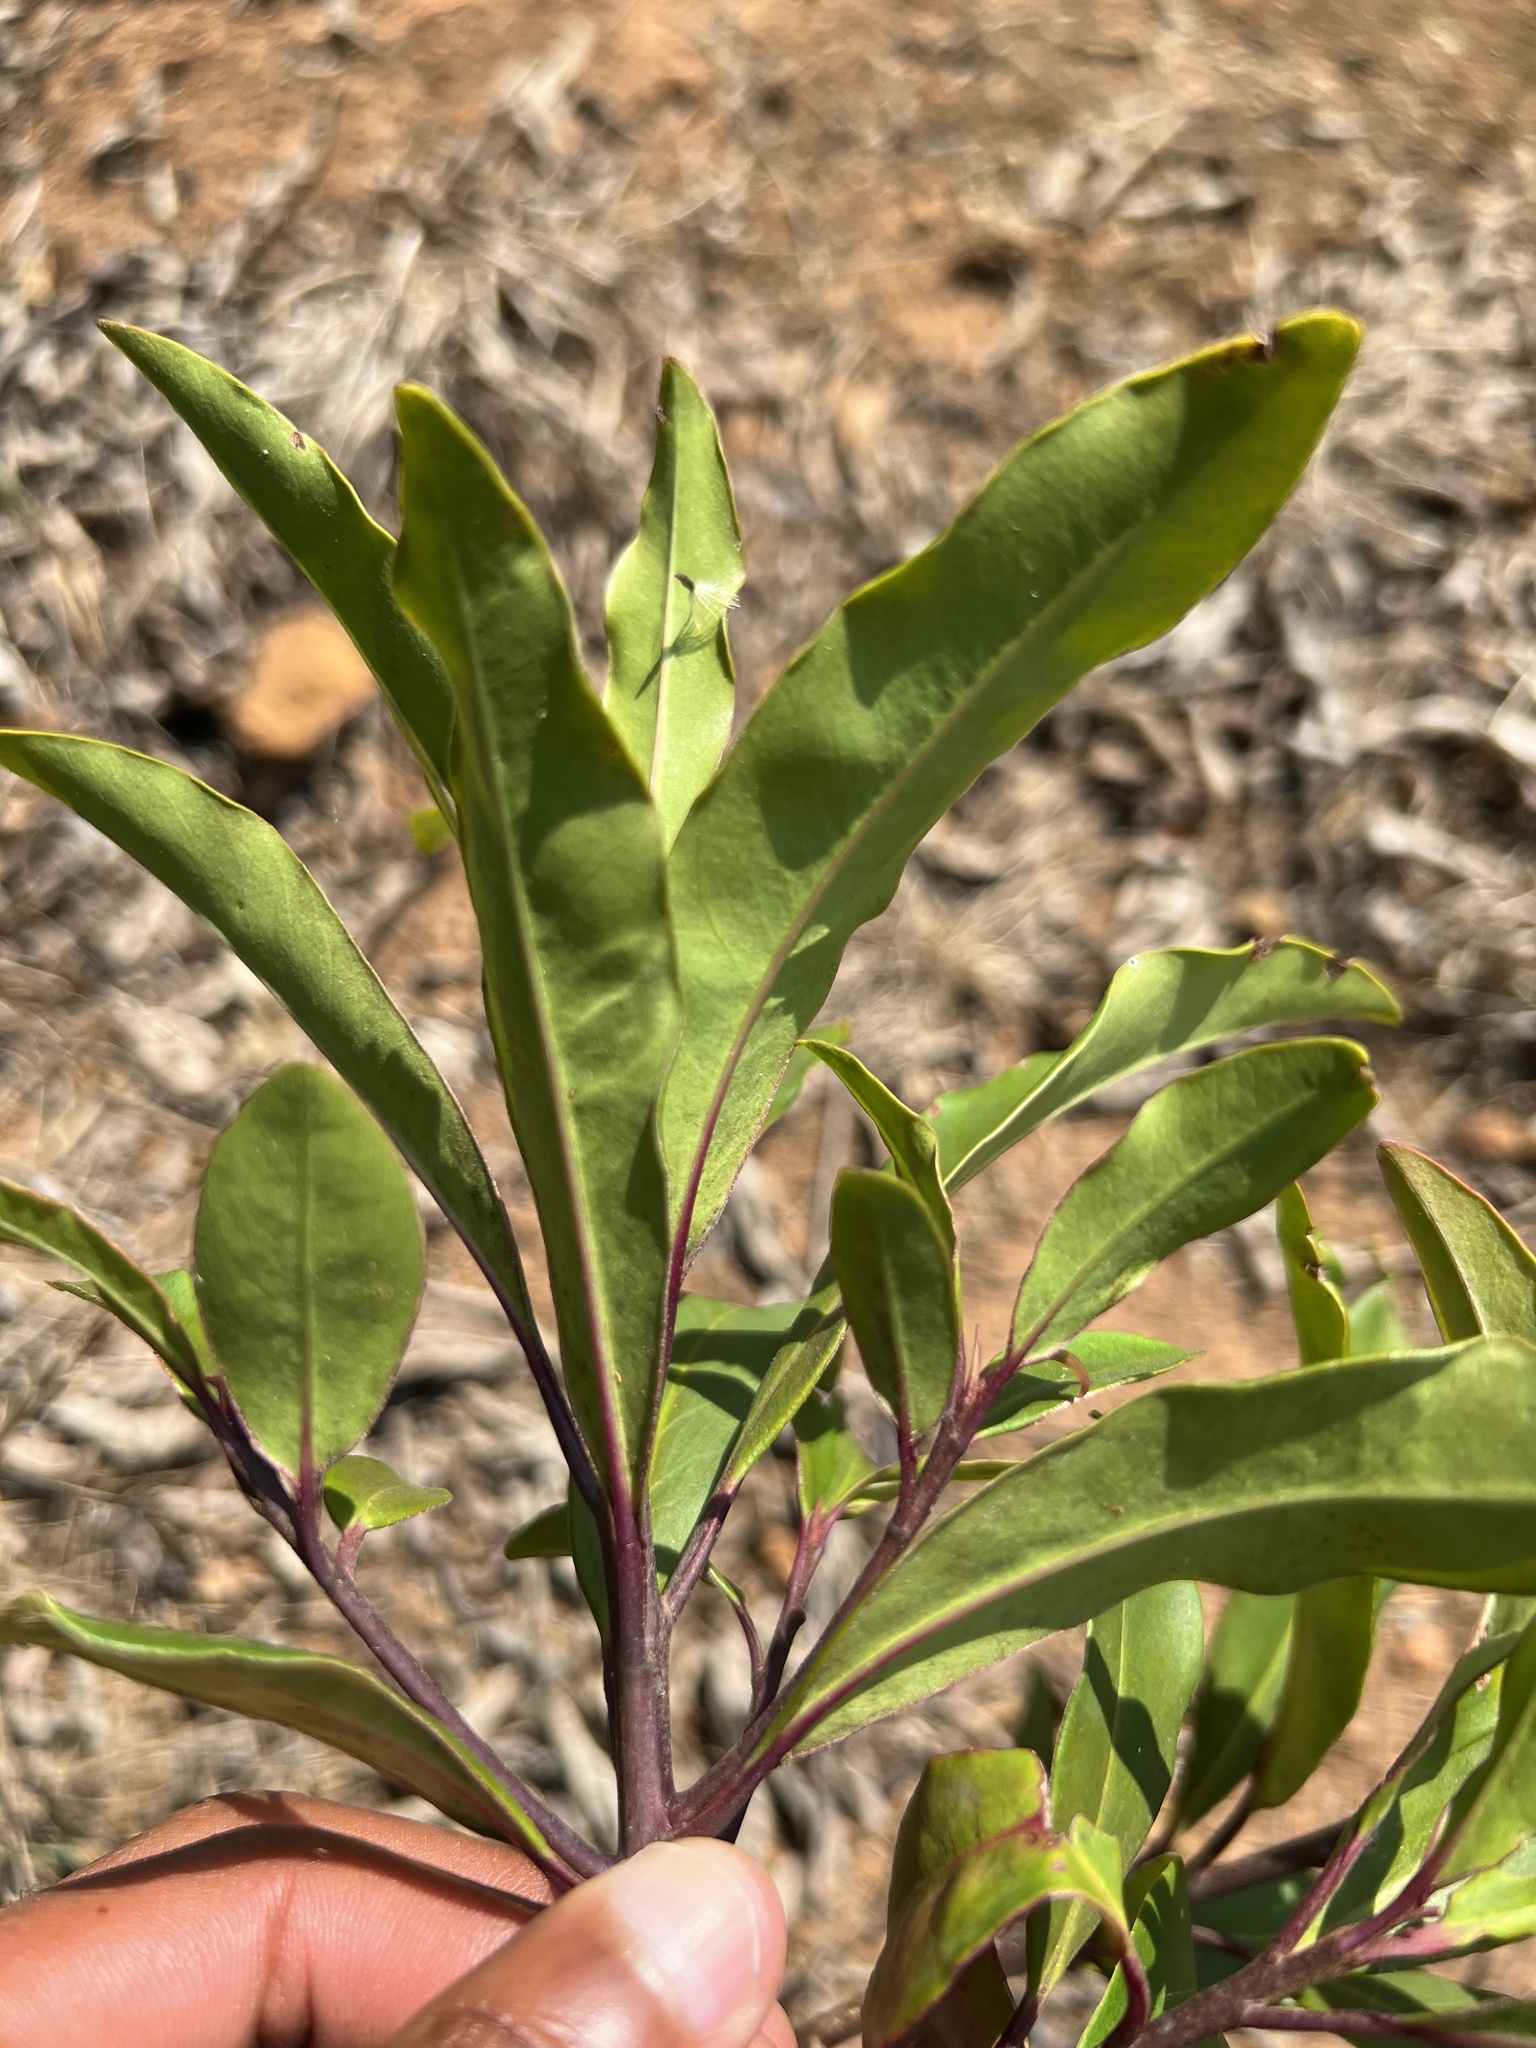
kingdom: Plantae
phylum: Tracheophyta
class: Magnoliopsida
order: Aquifoliales
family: Aquifoliaceae
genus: Ilex
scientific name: Ilex mitis
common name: African holly
